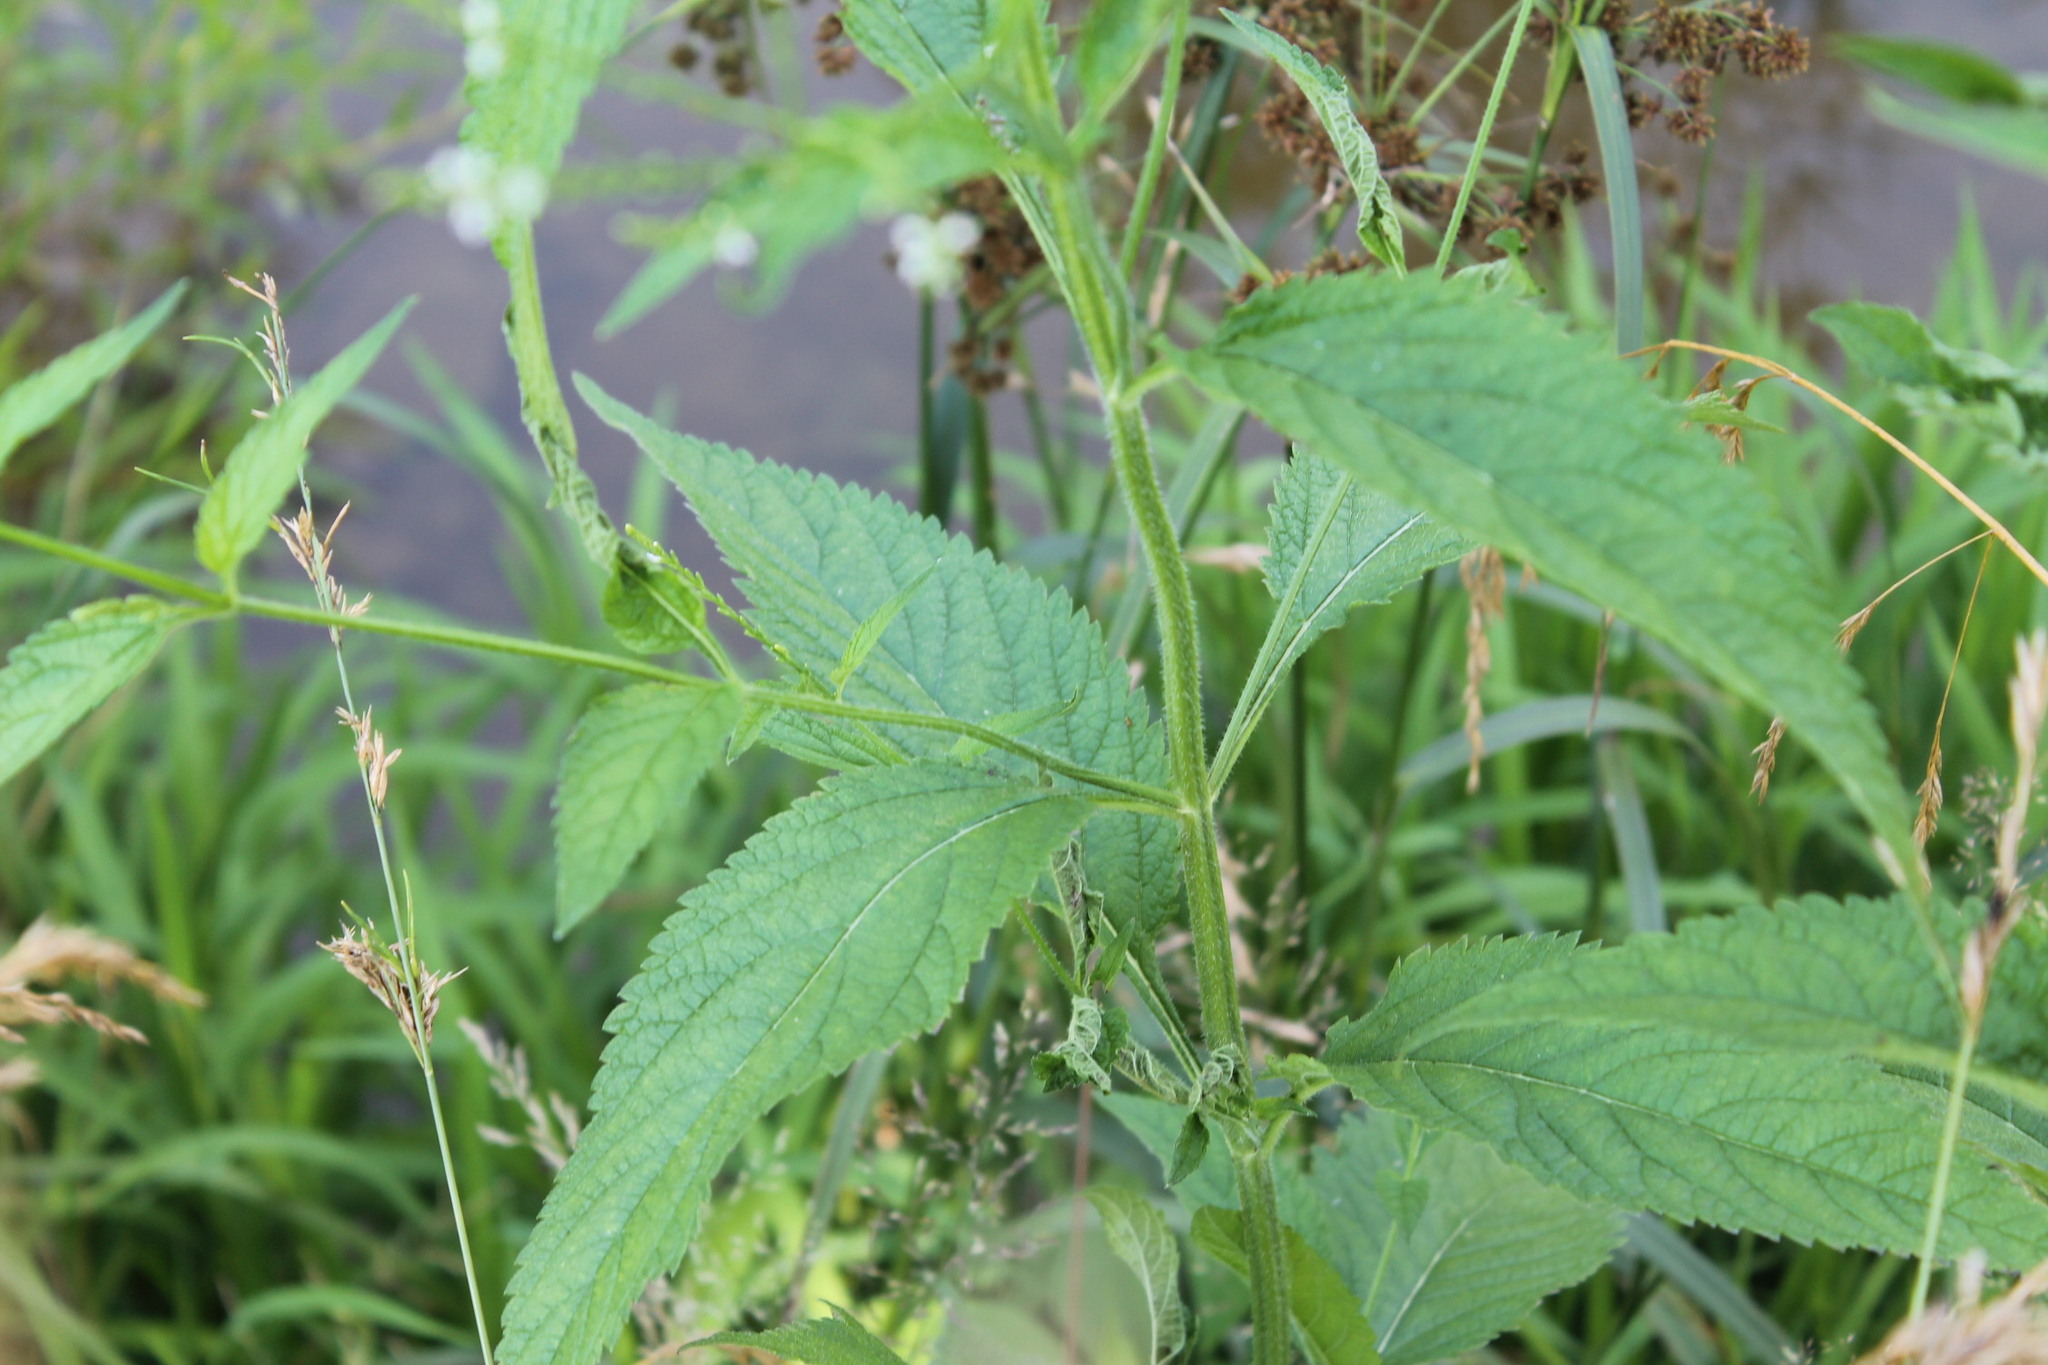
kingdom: Plantae
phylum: Tracheophyta
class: Magnoliopsida
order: Lamiales
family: Verbenaceae
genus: Verbena
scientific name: Verbena urticifolia
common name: Nettle-leaved vervain
